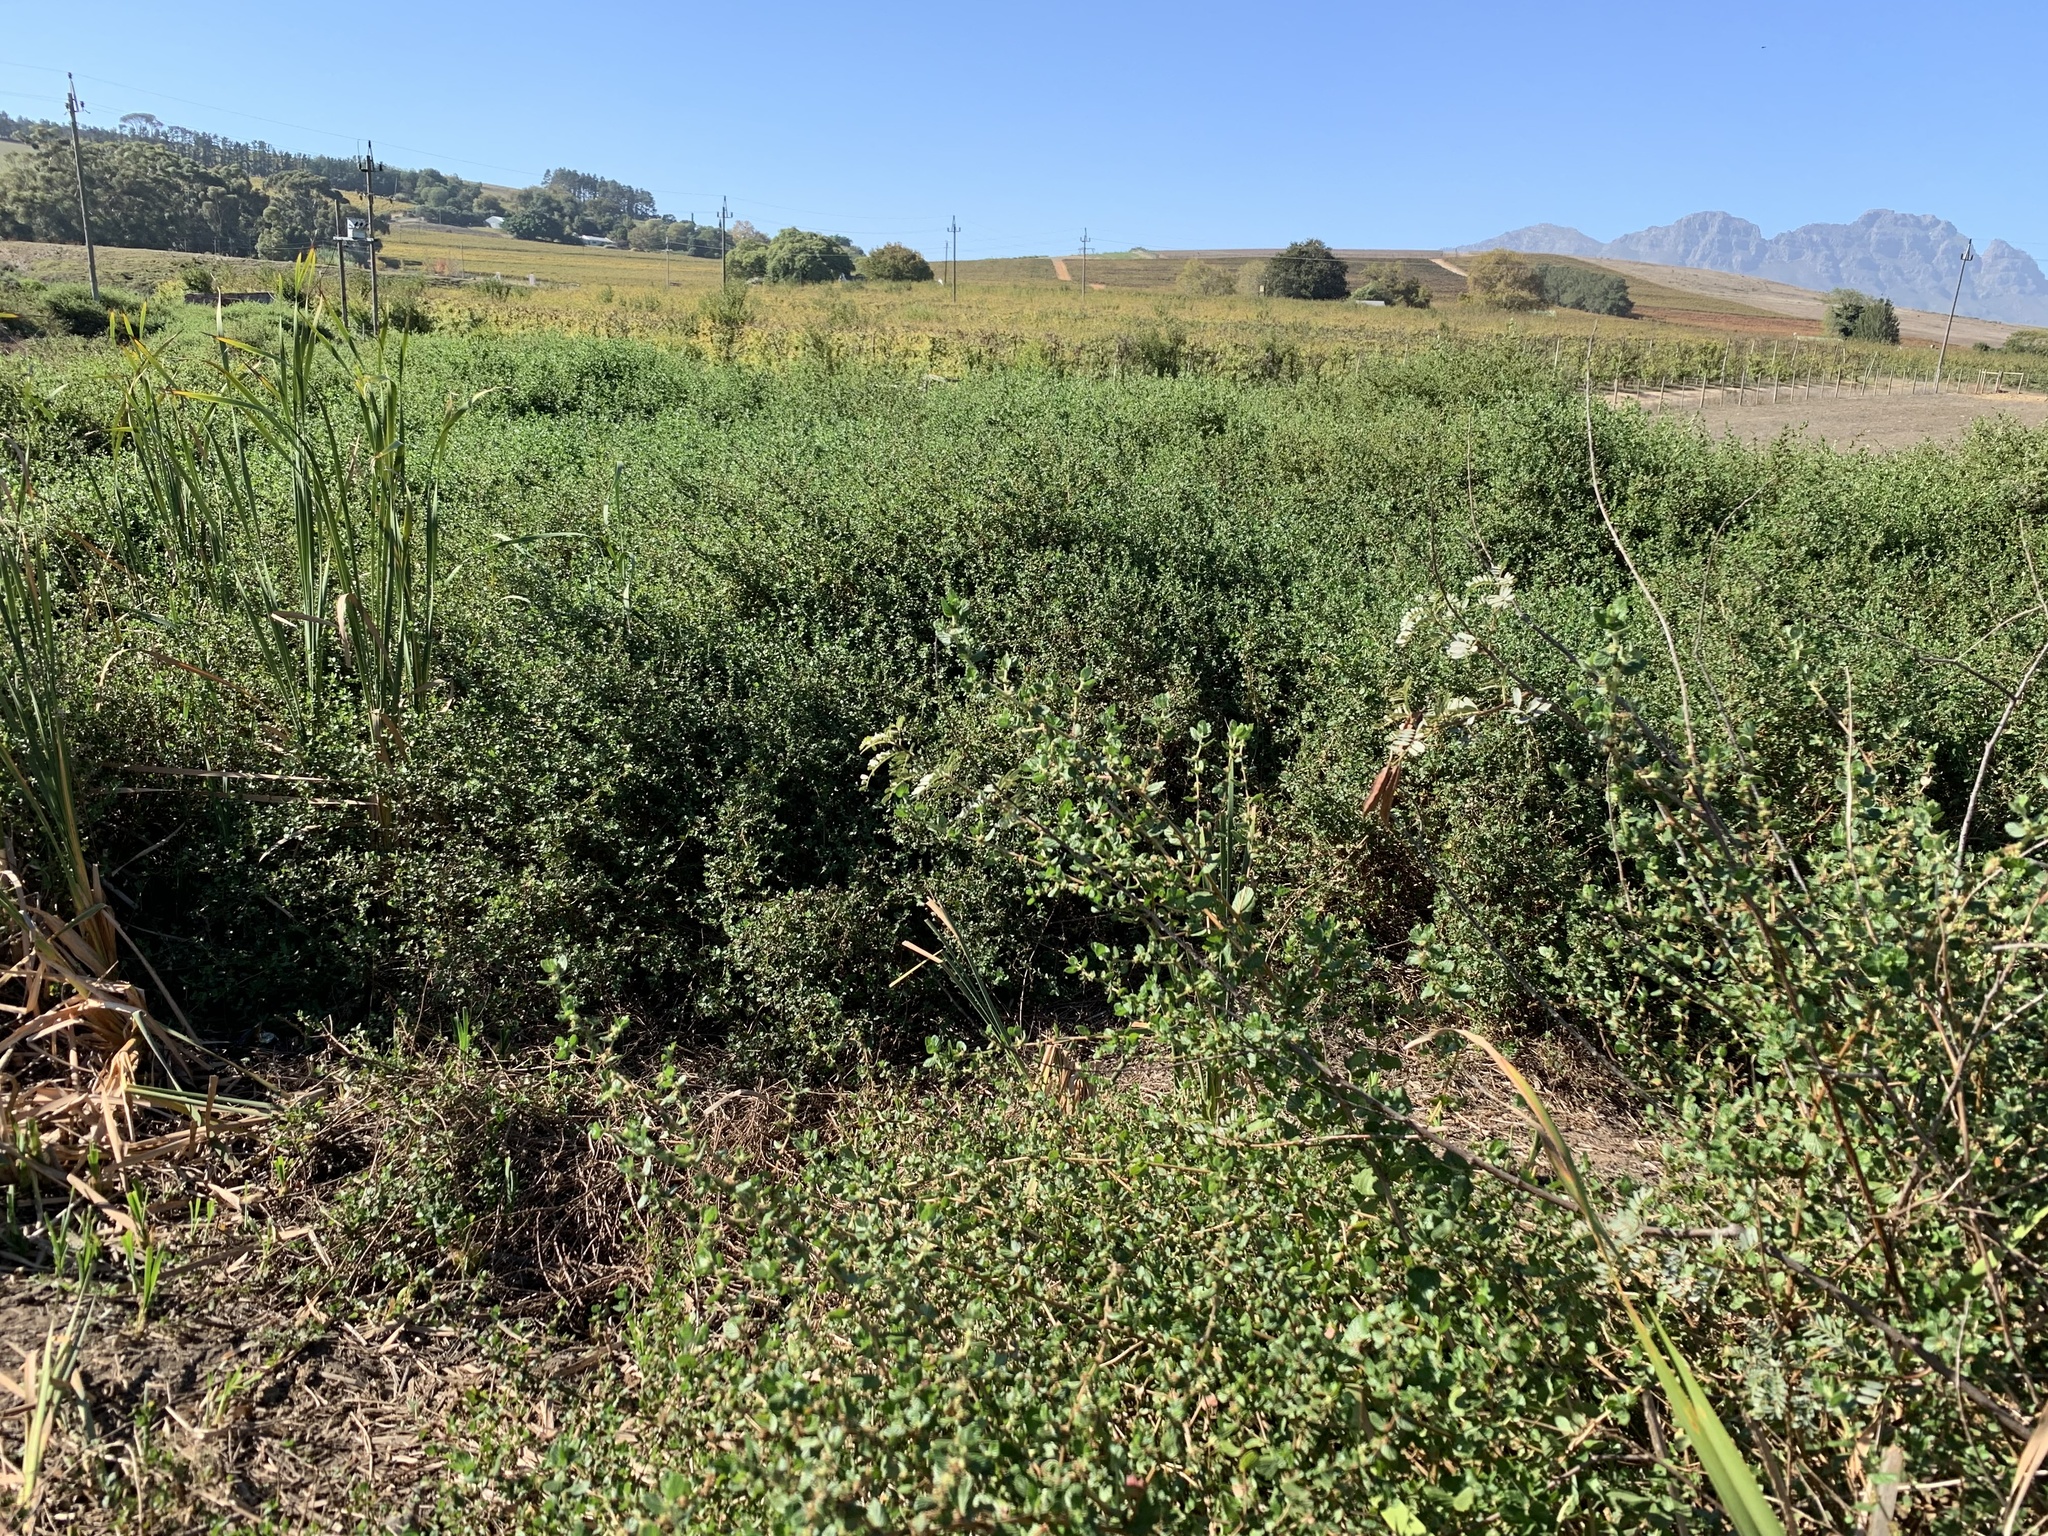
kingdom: Plantae
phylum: Tracheophyta
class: Magnoliopsida
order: Rosales
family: Rosaceae
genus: Cliffortia
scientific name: Cliffortia odorata
